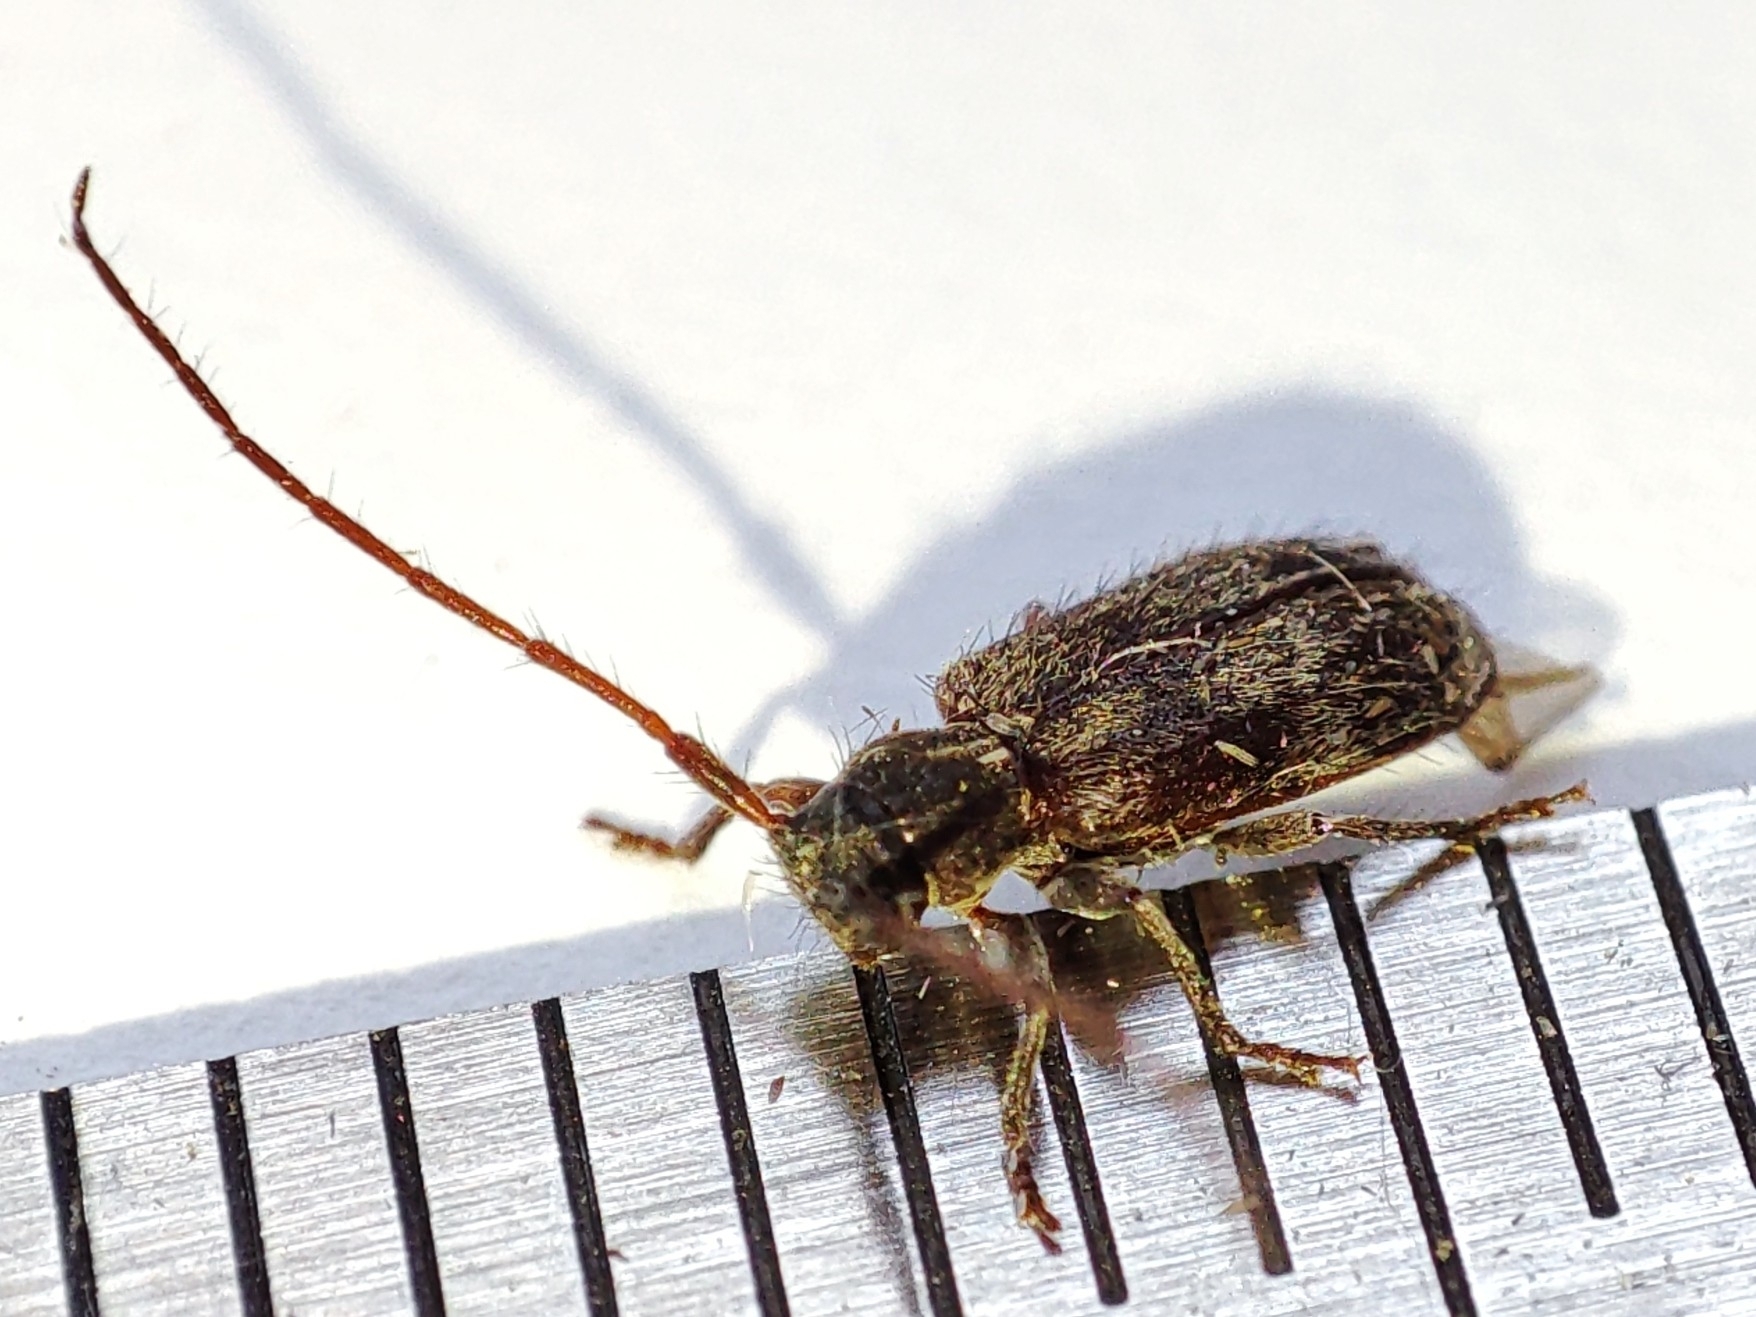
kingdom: Animalia
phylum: Arthropoda
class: Insecta
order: Coleoptera
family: Cerambycidae
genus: Exocentrus
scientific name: Exocentrus lusitanus
